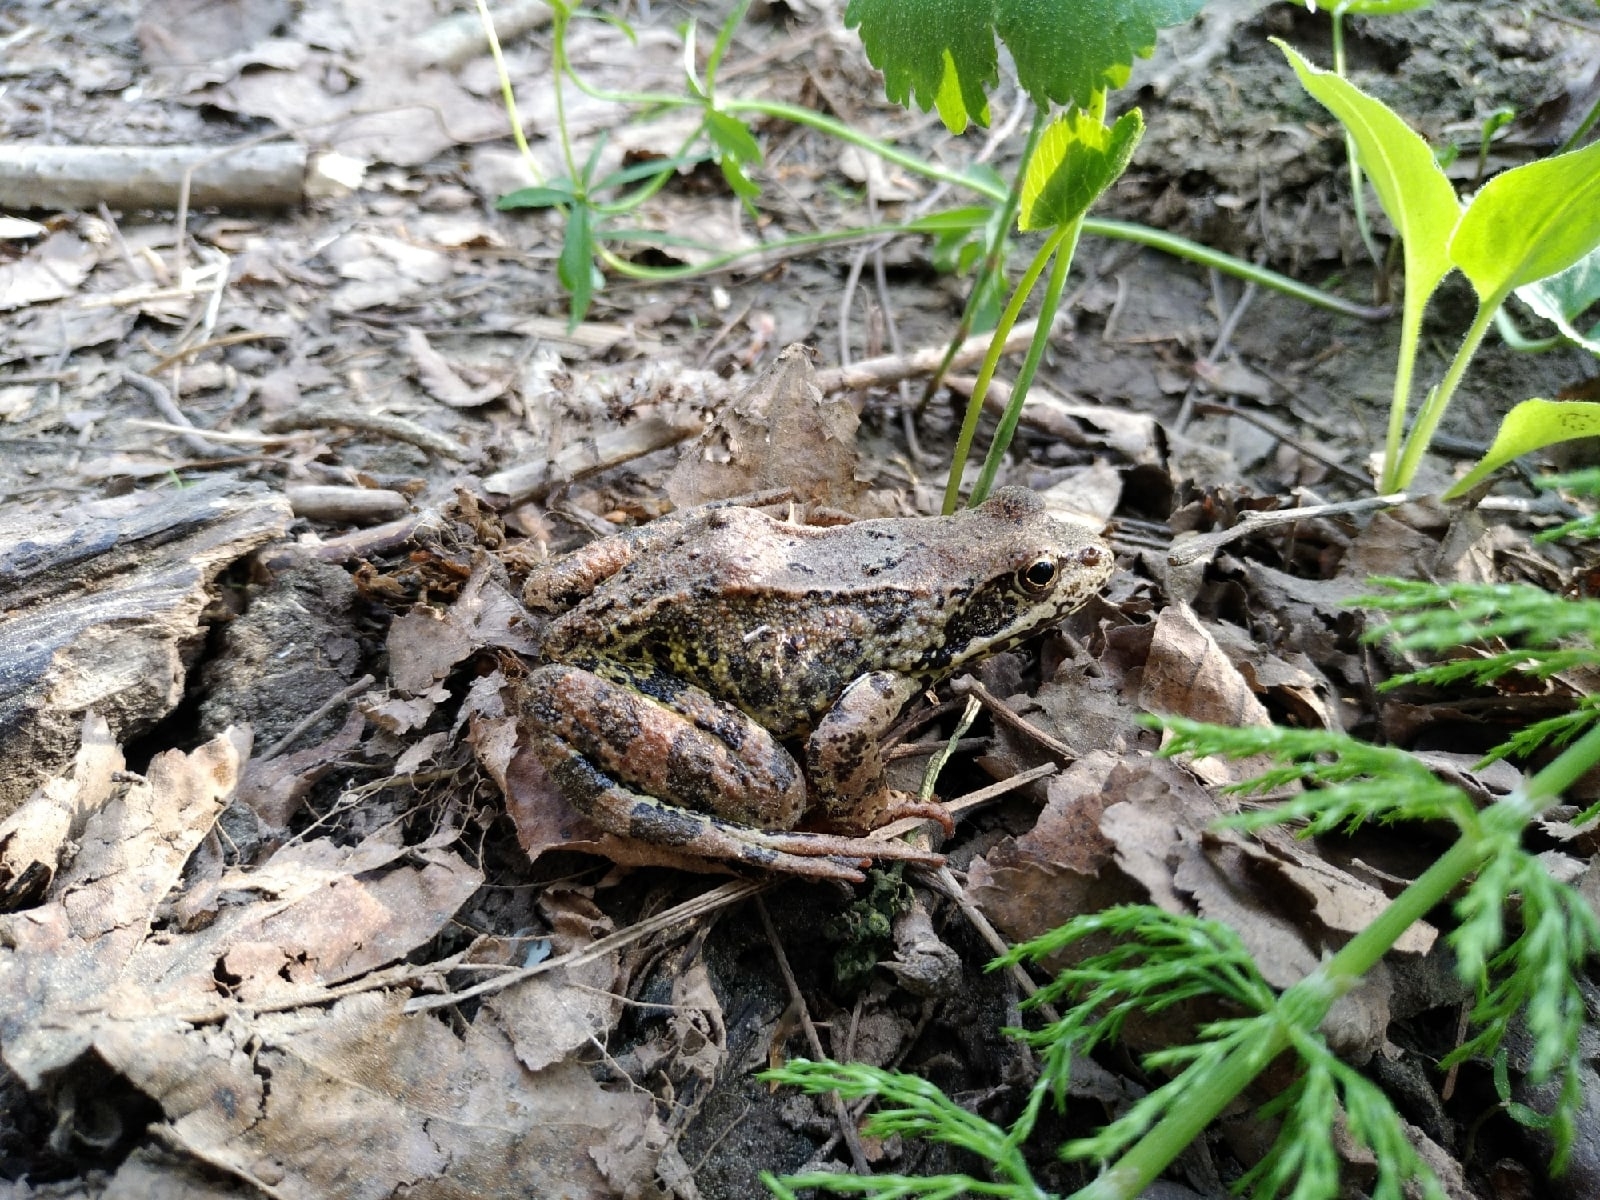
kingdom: Animalia
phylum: Chordata
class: Amphibia
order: Anura
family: Ranidae
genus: Rana
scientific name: Rana temporaria
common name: Common frog
